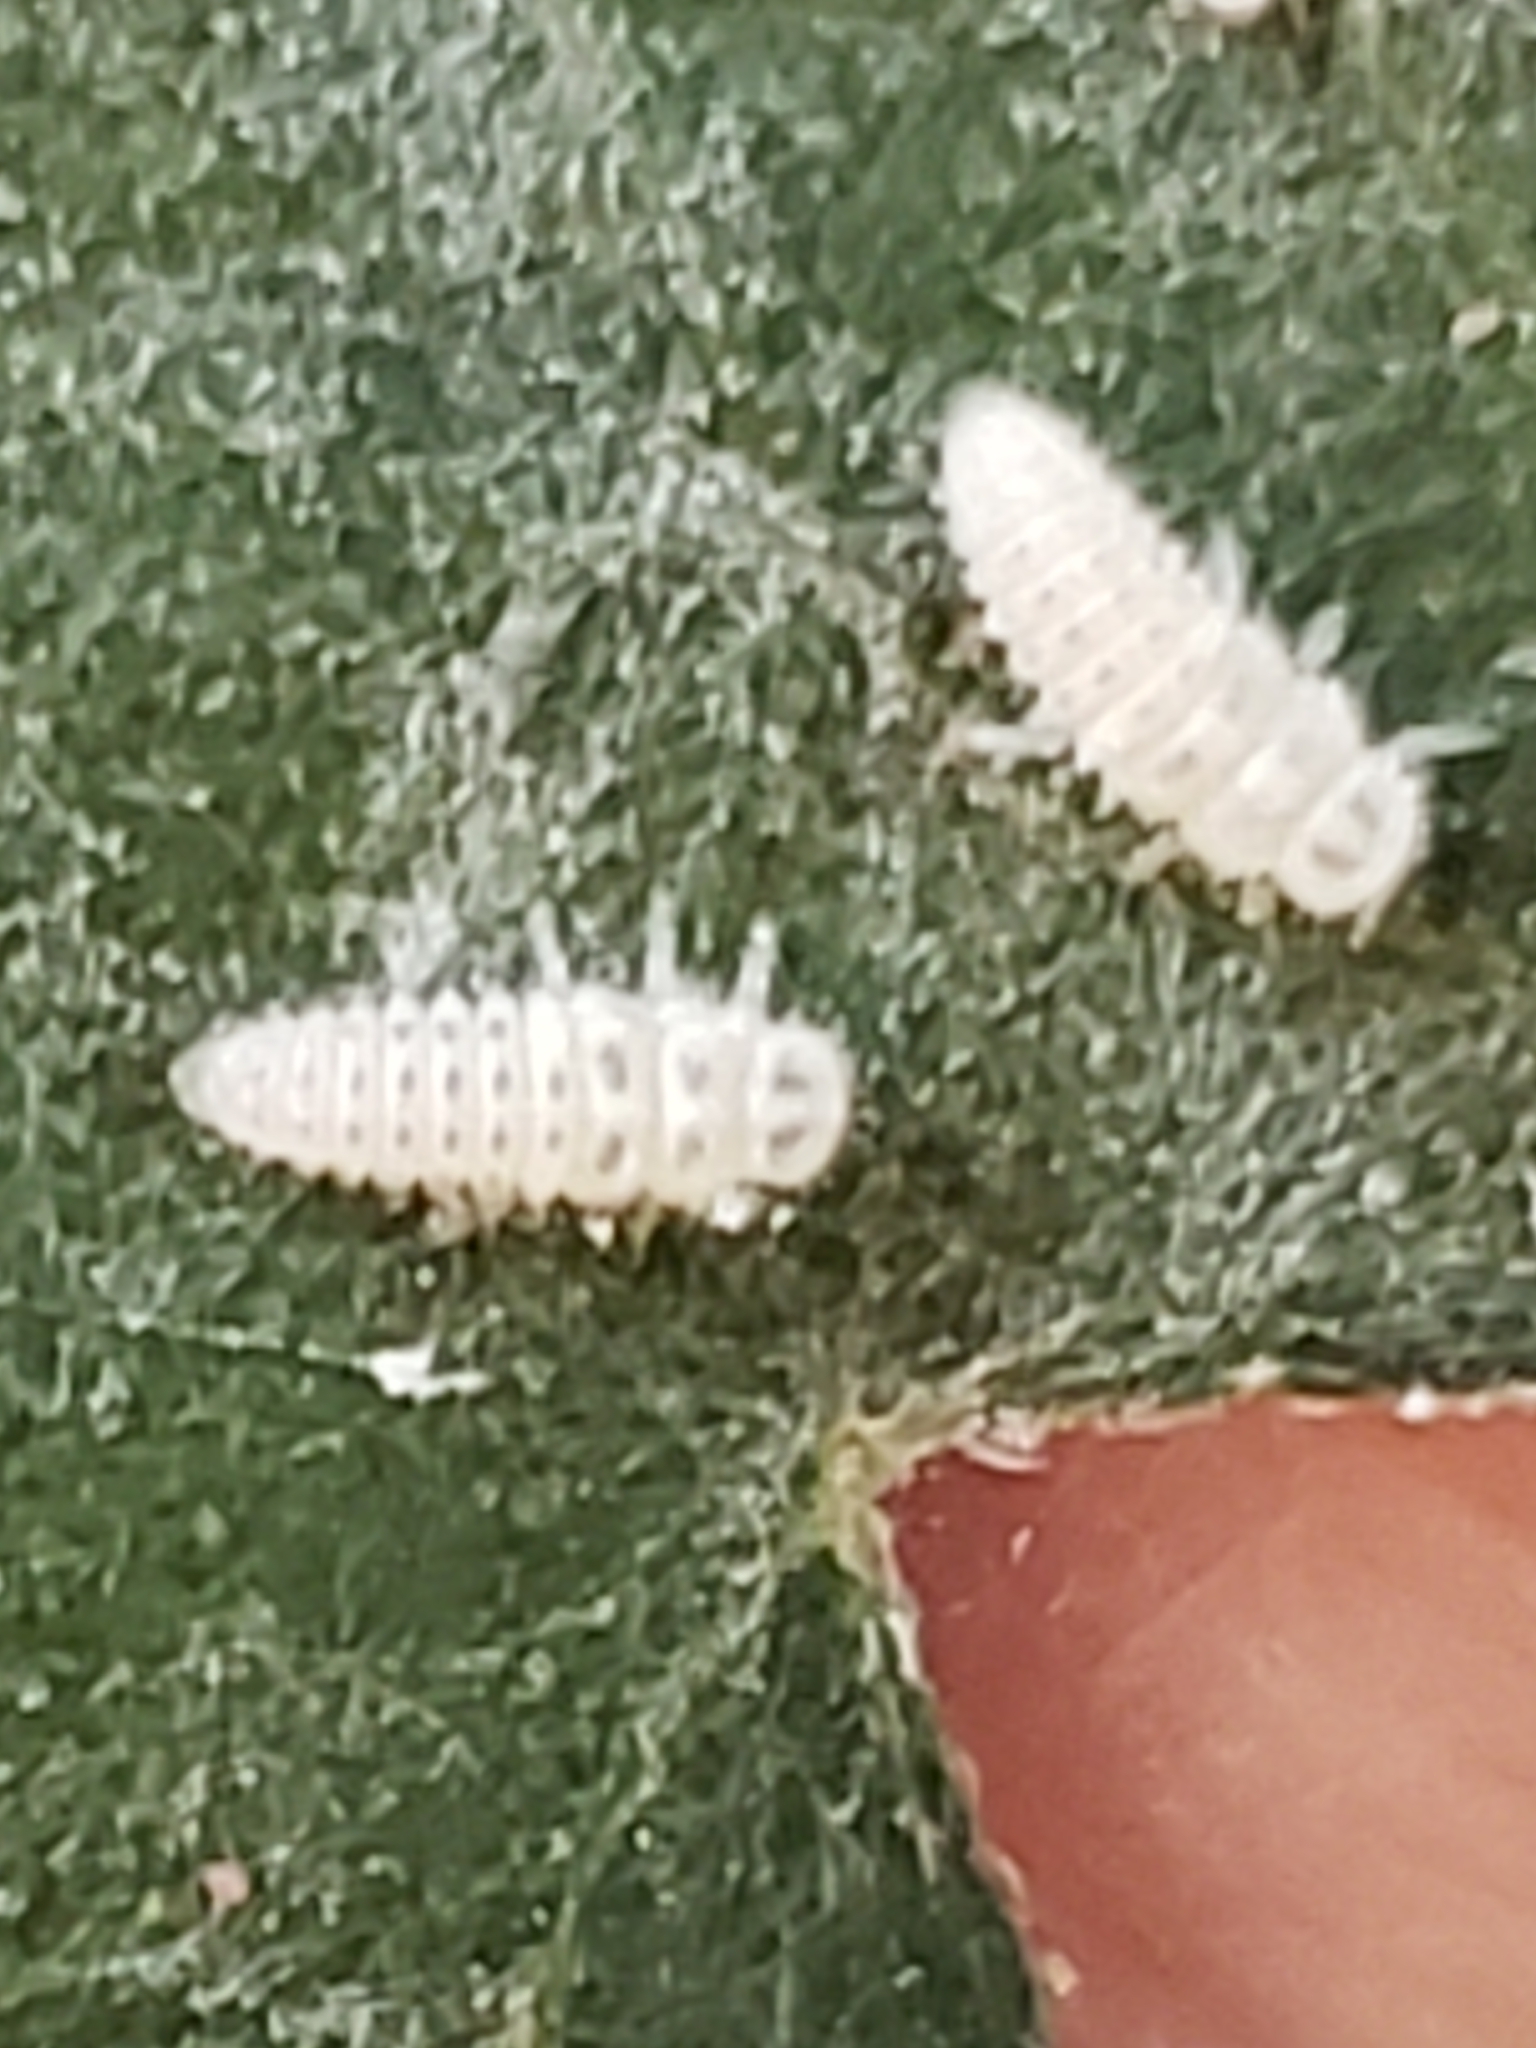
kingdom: Animalia
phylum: Arthropoda
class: Insecta
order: Coleoptera
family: Coccinellidae
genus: Psyllobora
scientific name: Psyllobora vigintimaculata
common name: Ladybird beetle
